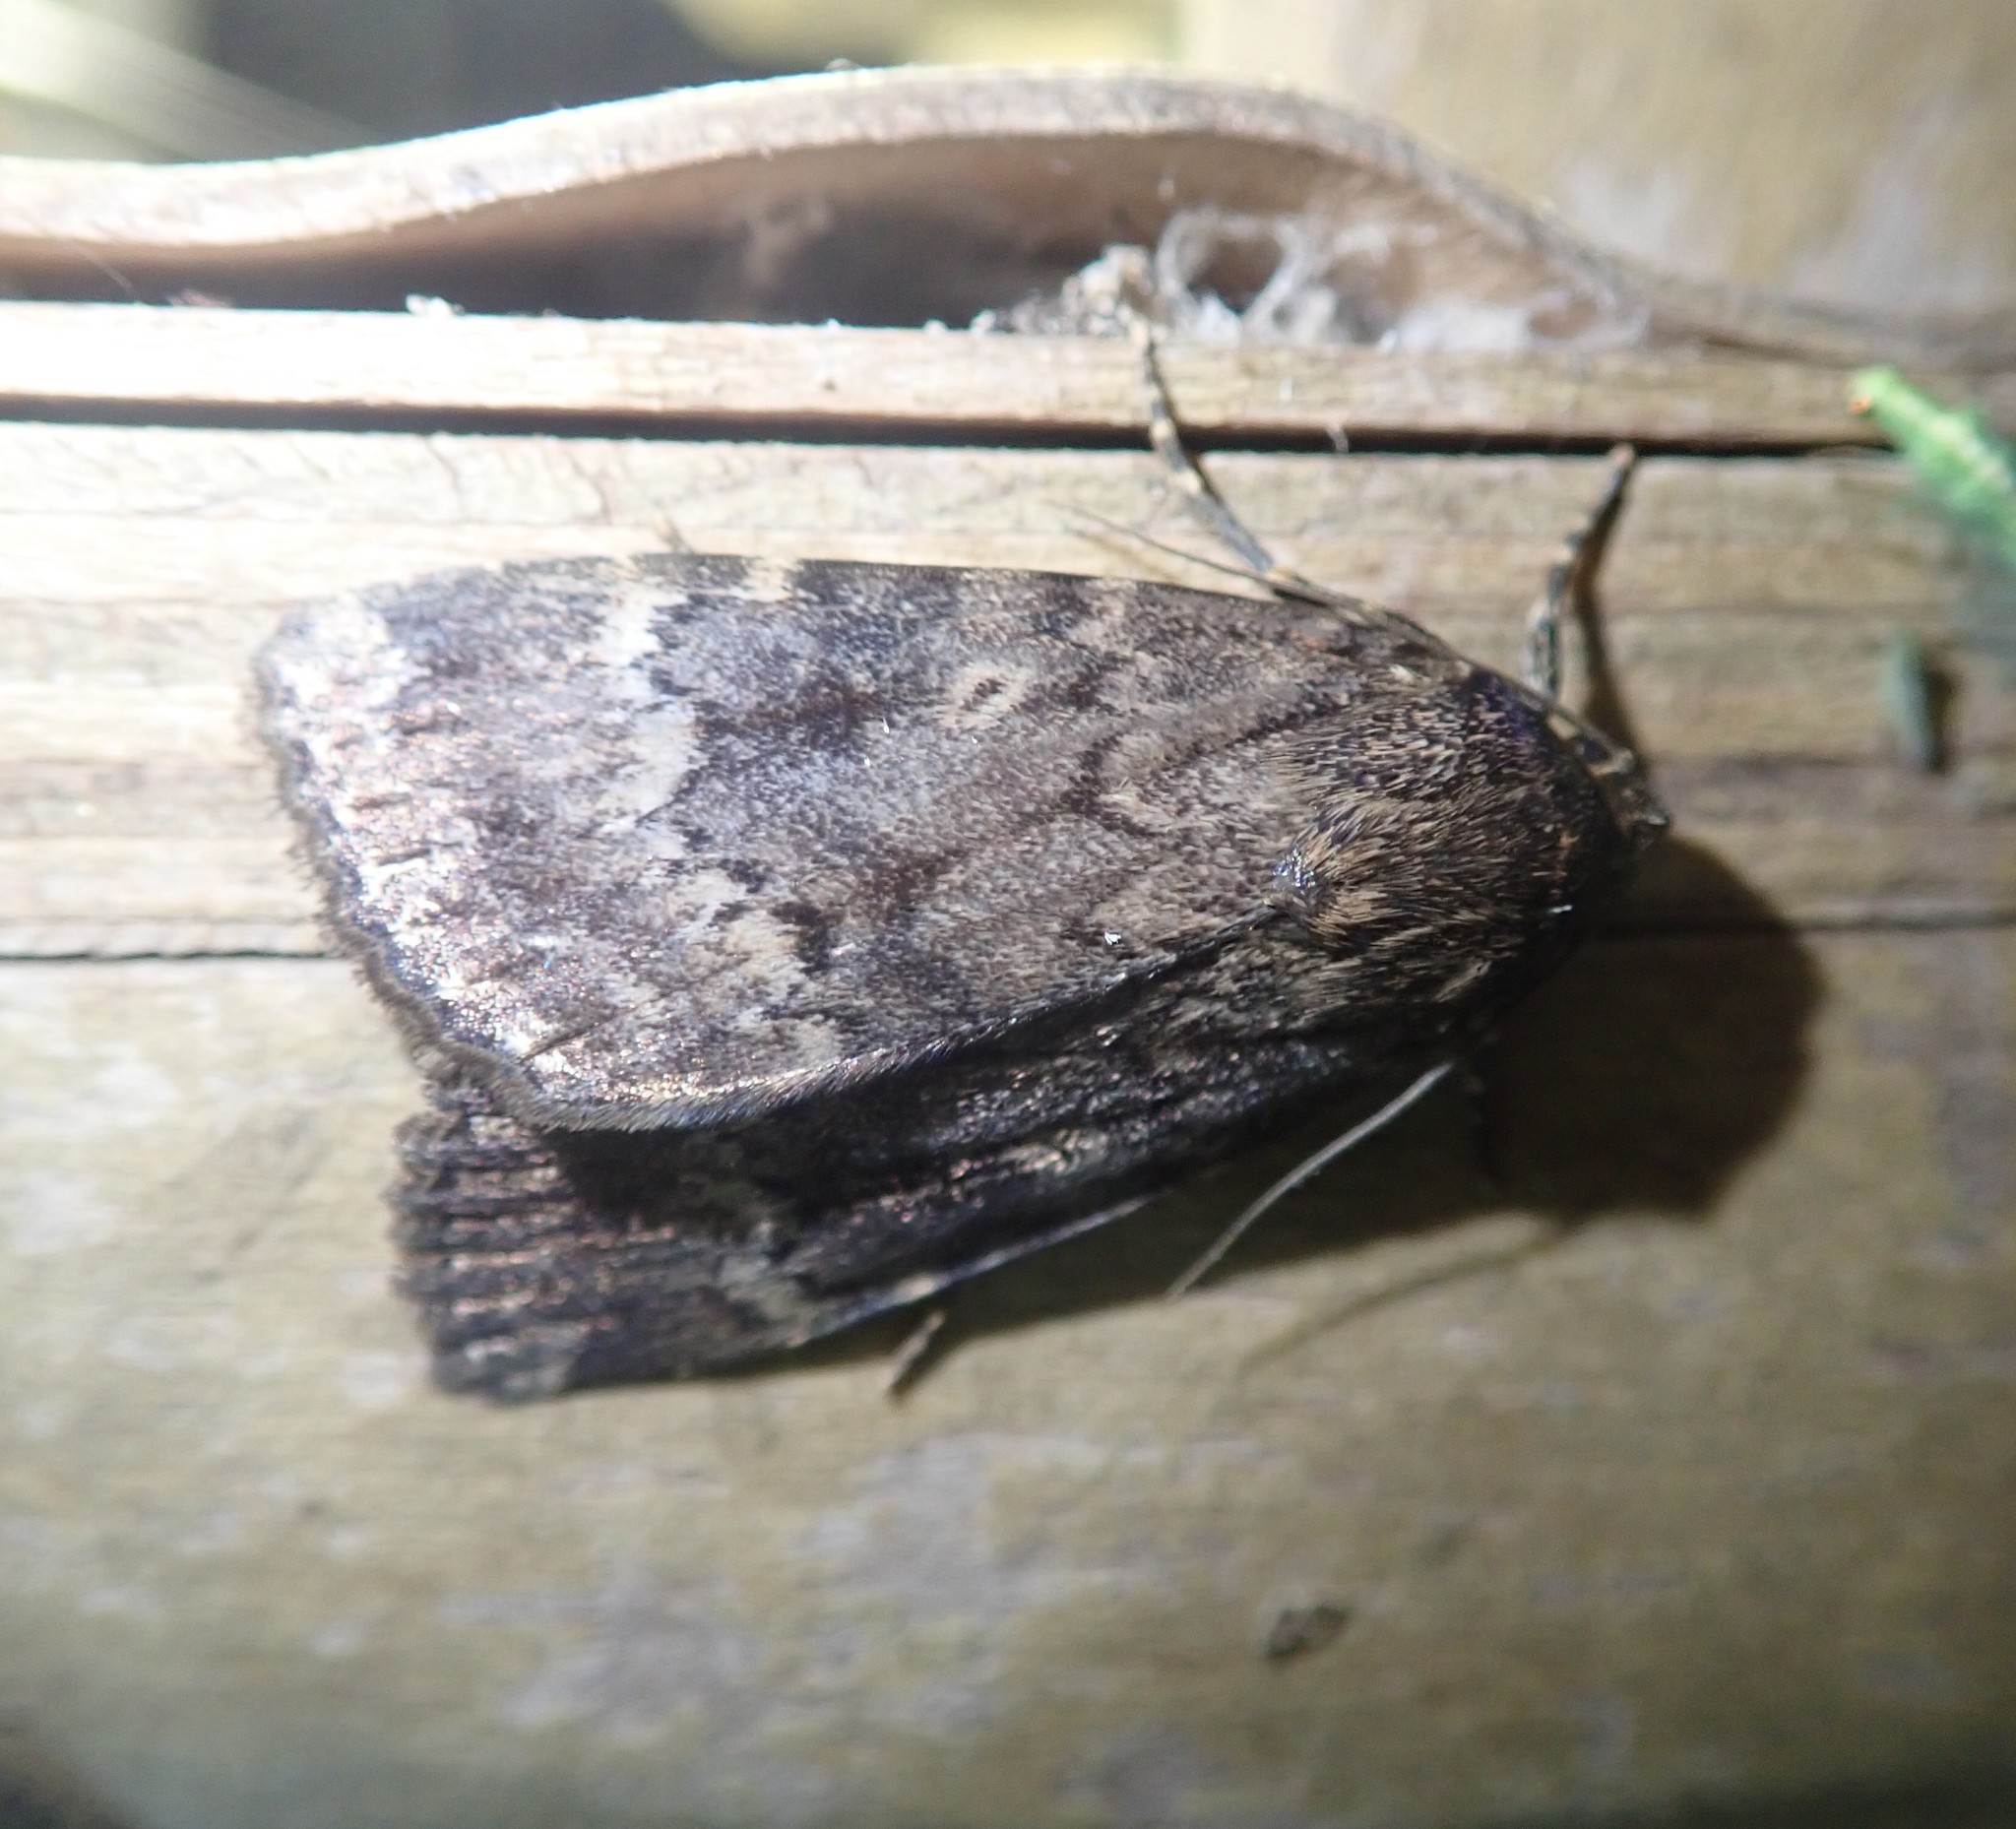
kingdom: Animalia
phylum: Arthropoda
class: Insecta
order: Lepidoptera
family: Noctuidae
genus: Amphipyra
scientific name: Amphipyra berbera
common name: Svensson's copper underwing
